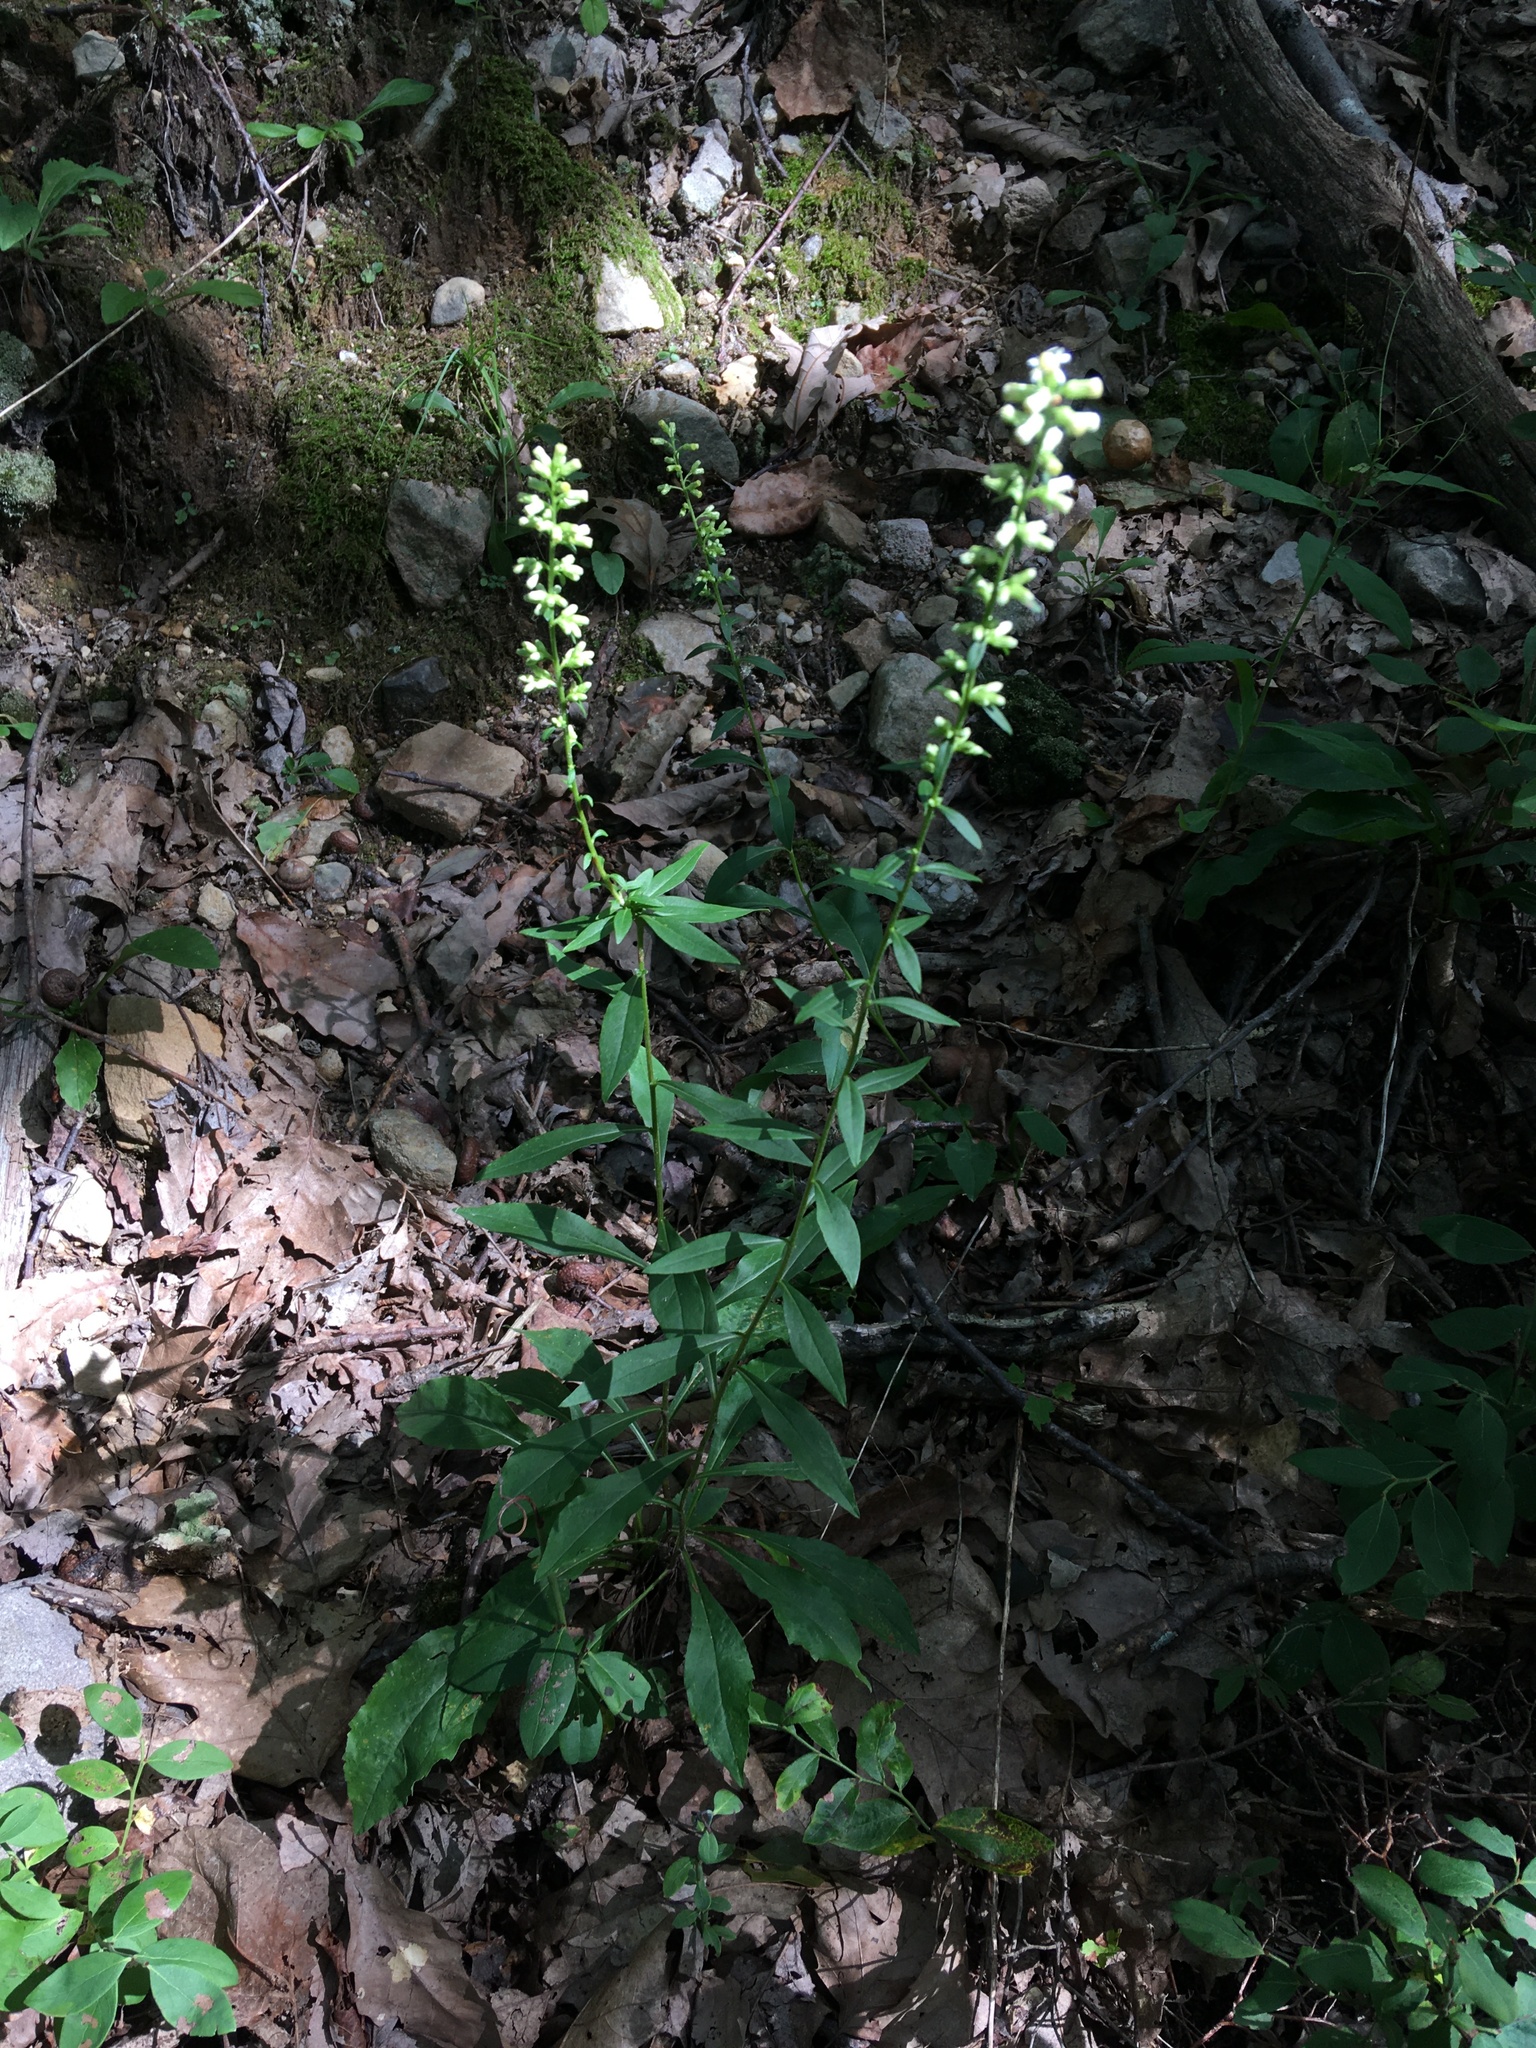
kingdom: Plantae
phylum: Tracheophyta
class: Magnoliopsida
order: Asterales
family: Asteraceae
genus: Solidago
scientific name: Solidago bicolor
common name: Silverrod
